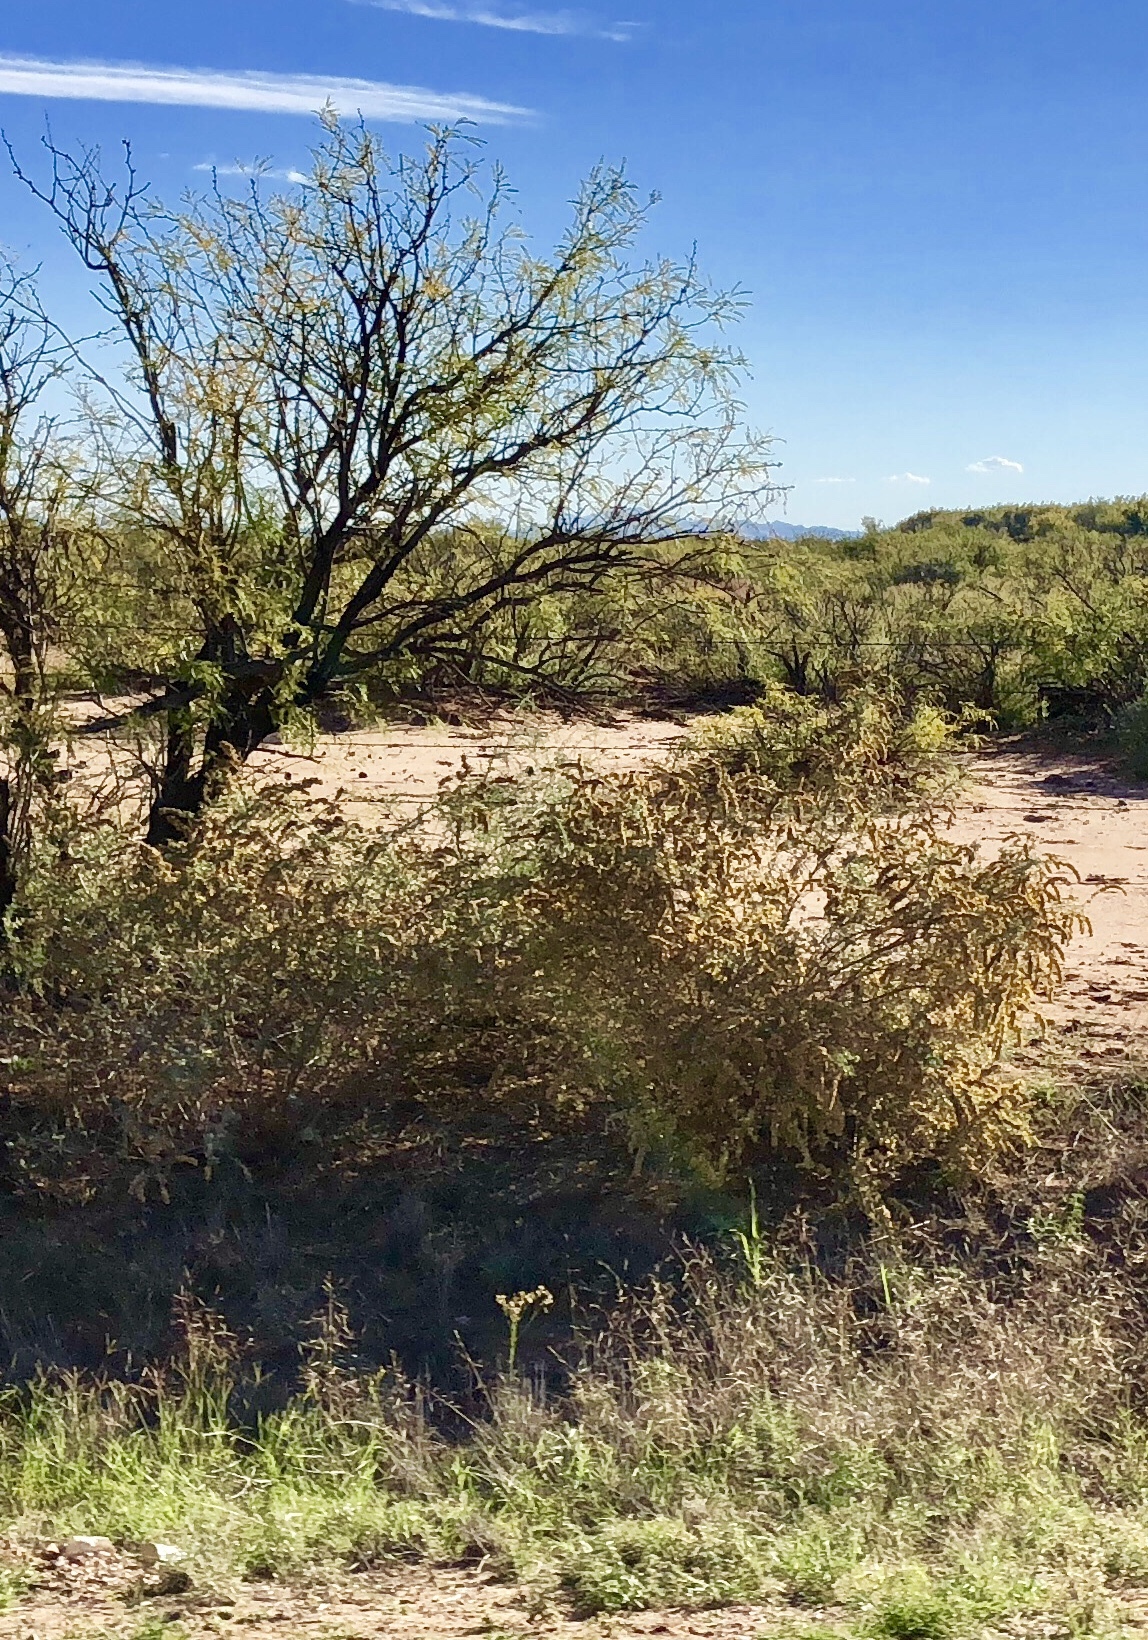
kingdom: Plantae
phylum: Tracheophyta
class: Magnoliopsida
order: Caryophyllales
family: Amaranthaceae
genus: Atriplex
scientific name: Atriplex canescens
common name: Four-wing saltbush
